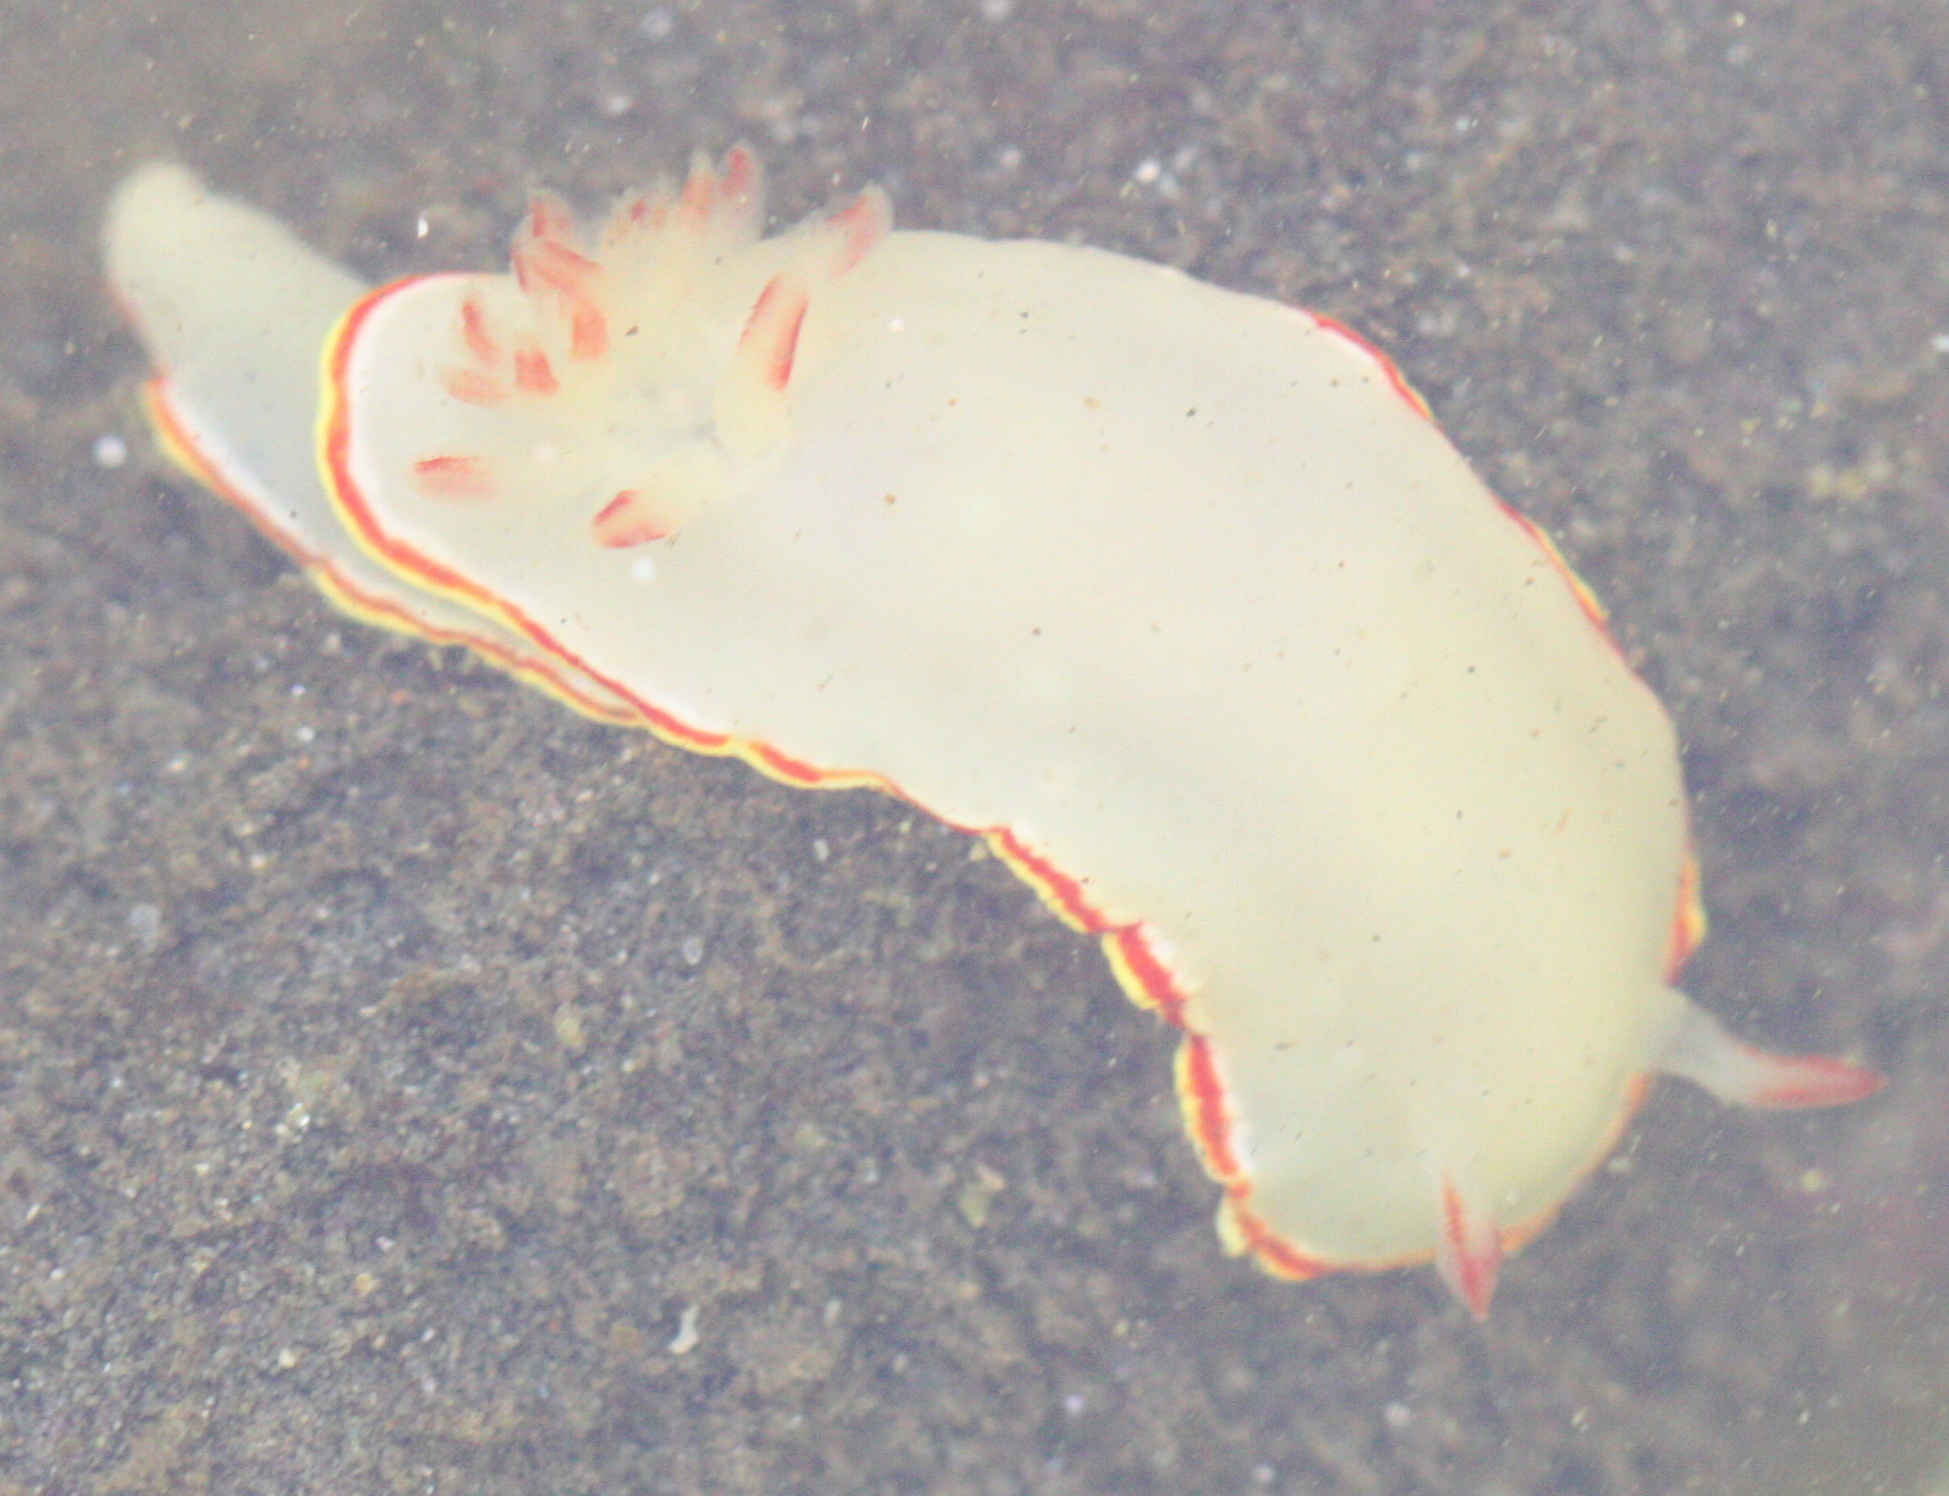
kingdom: Animalia
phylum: Mollusca
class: Gastropoda
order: Nudibranchia
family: Chromodorididae
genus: Chromolaichma
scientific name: Chromolaichma sedna
